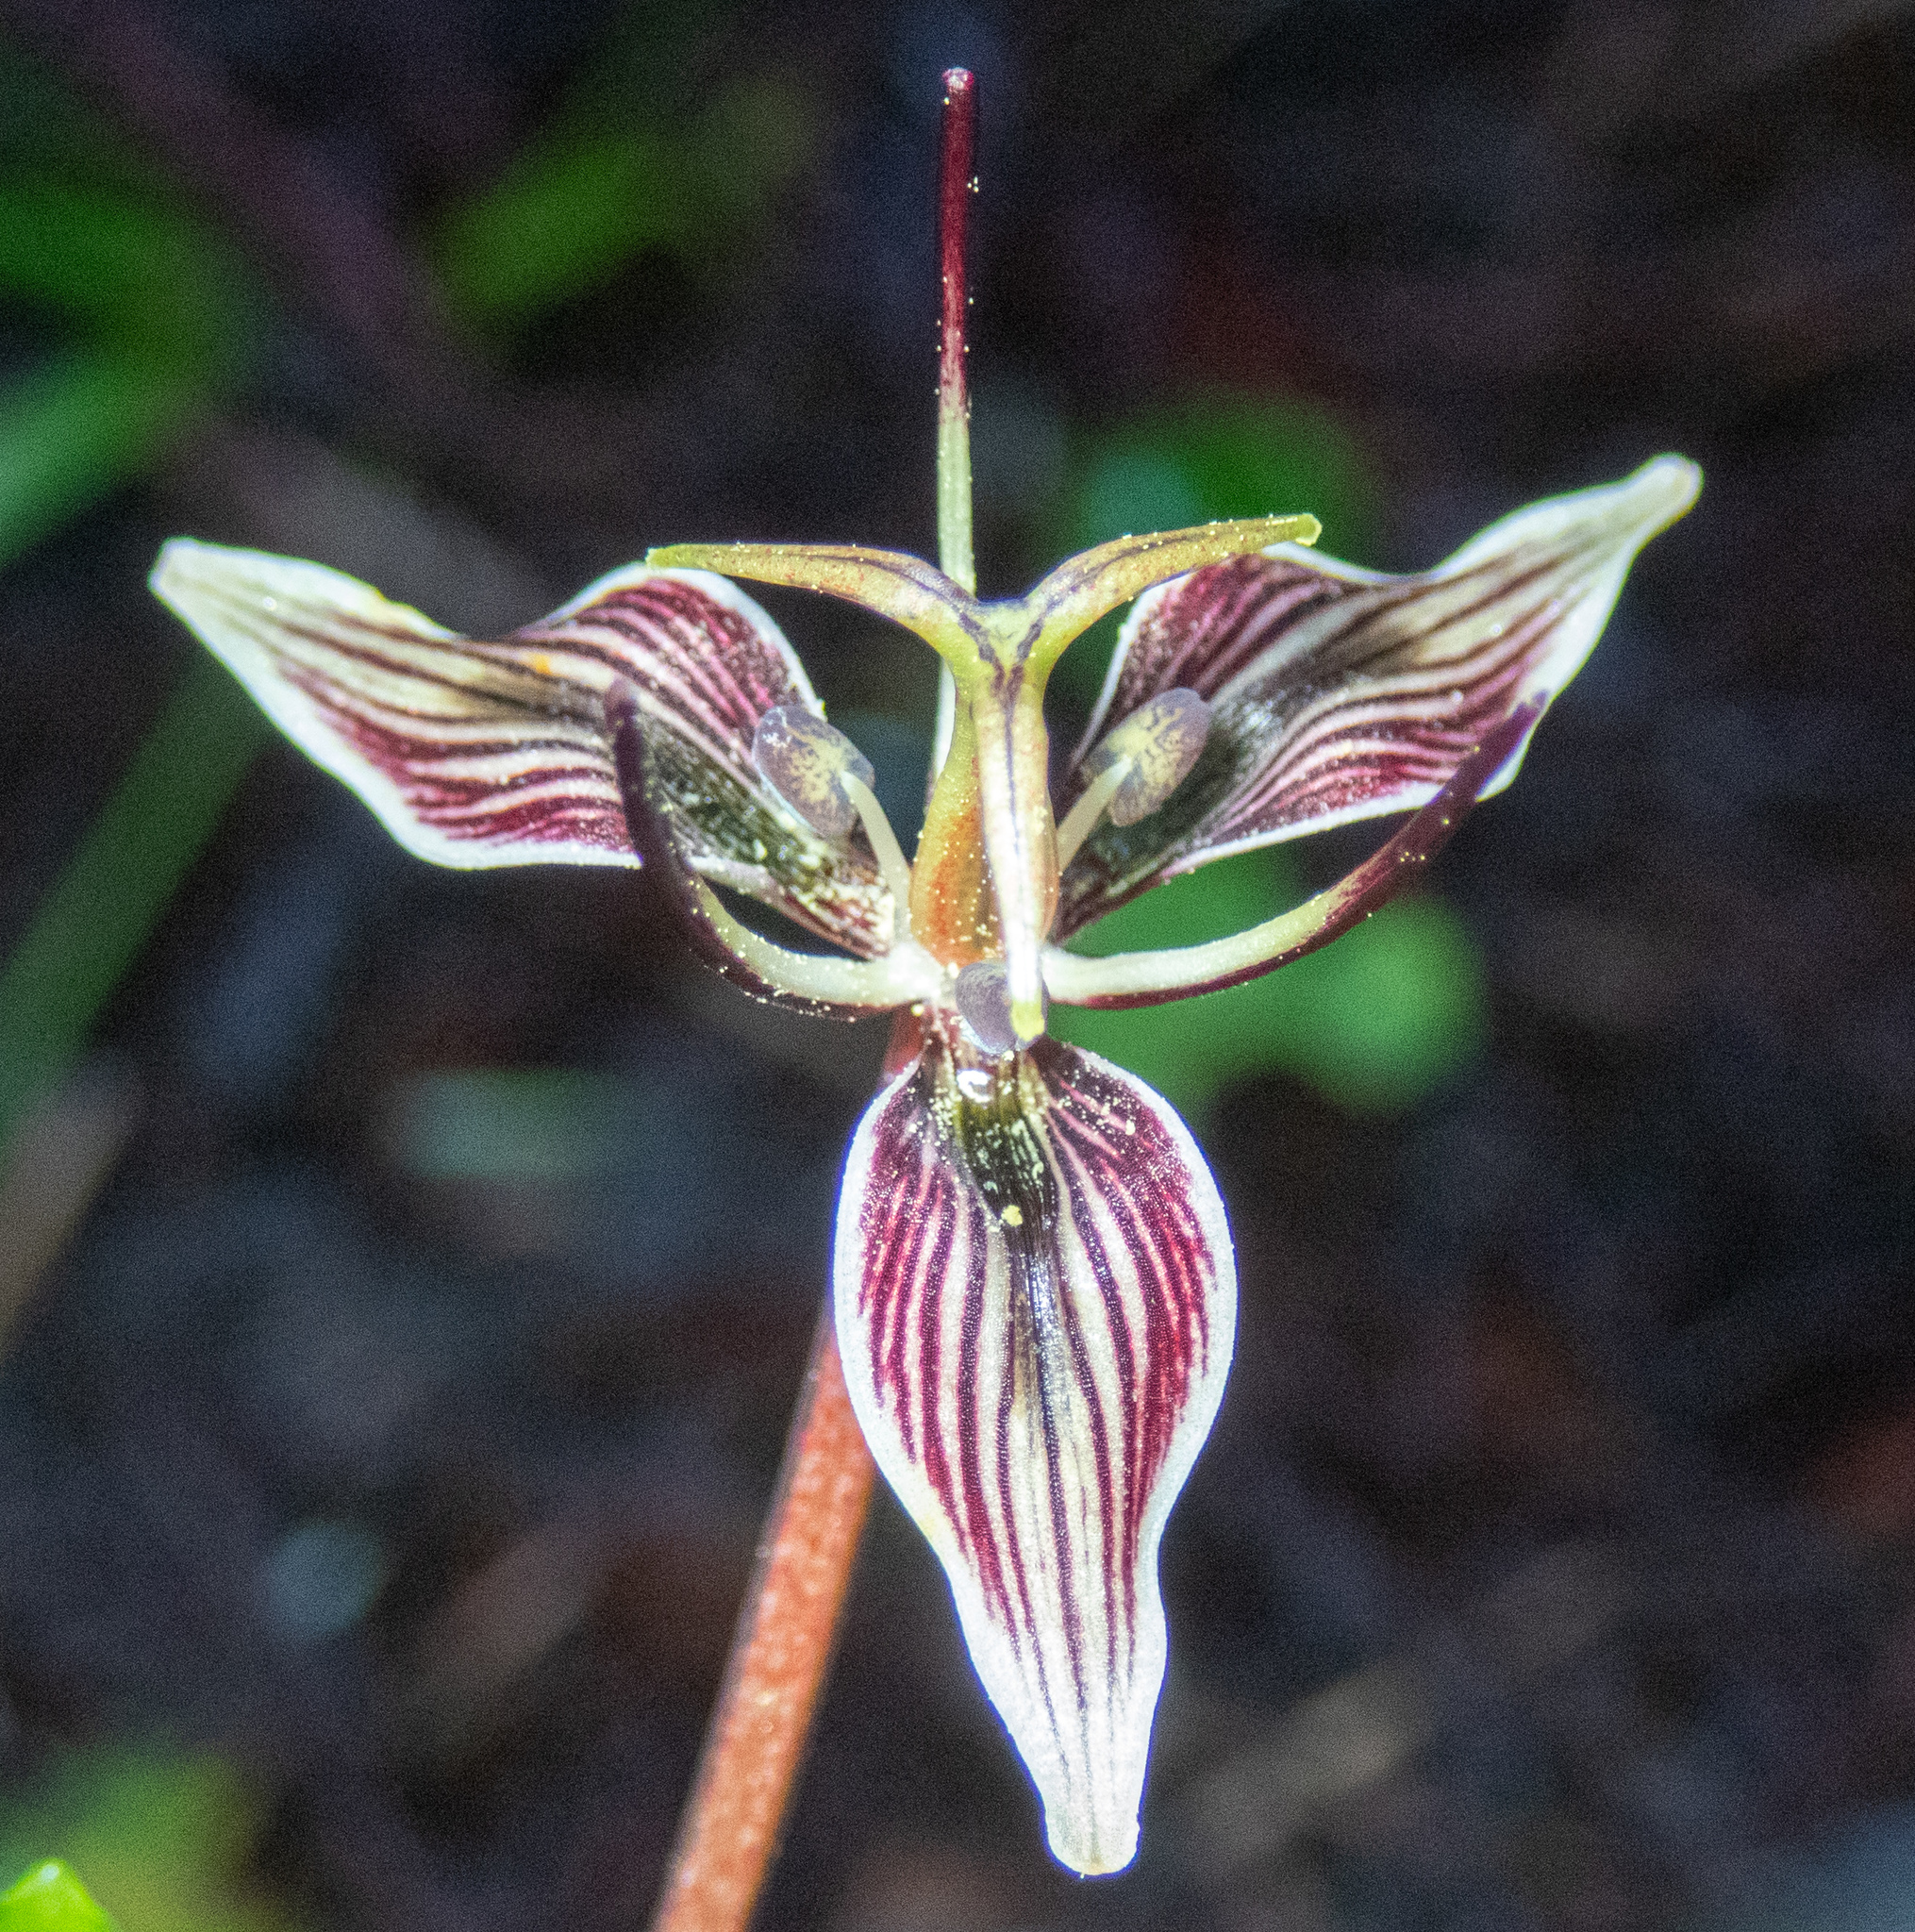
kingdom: Plantae
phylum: Tracheophyta
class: Liliopsida
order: Liliales
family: Liliaceae
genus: Scoliopus
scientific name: Scoliopus bigelovii
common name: Foetid adder's-tongue
